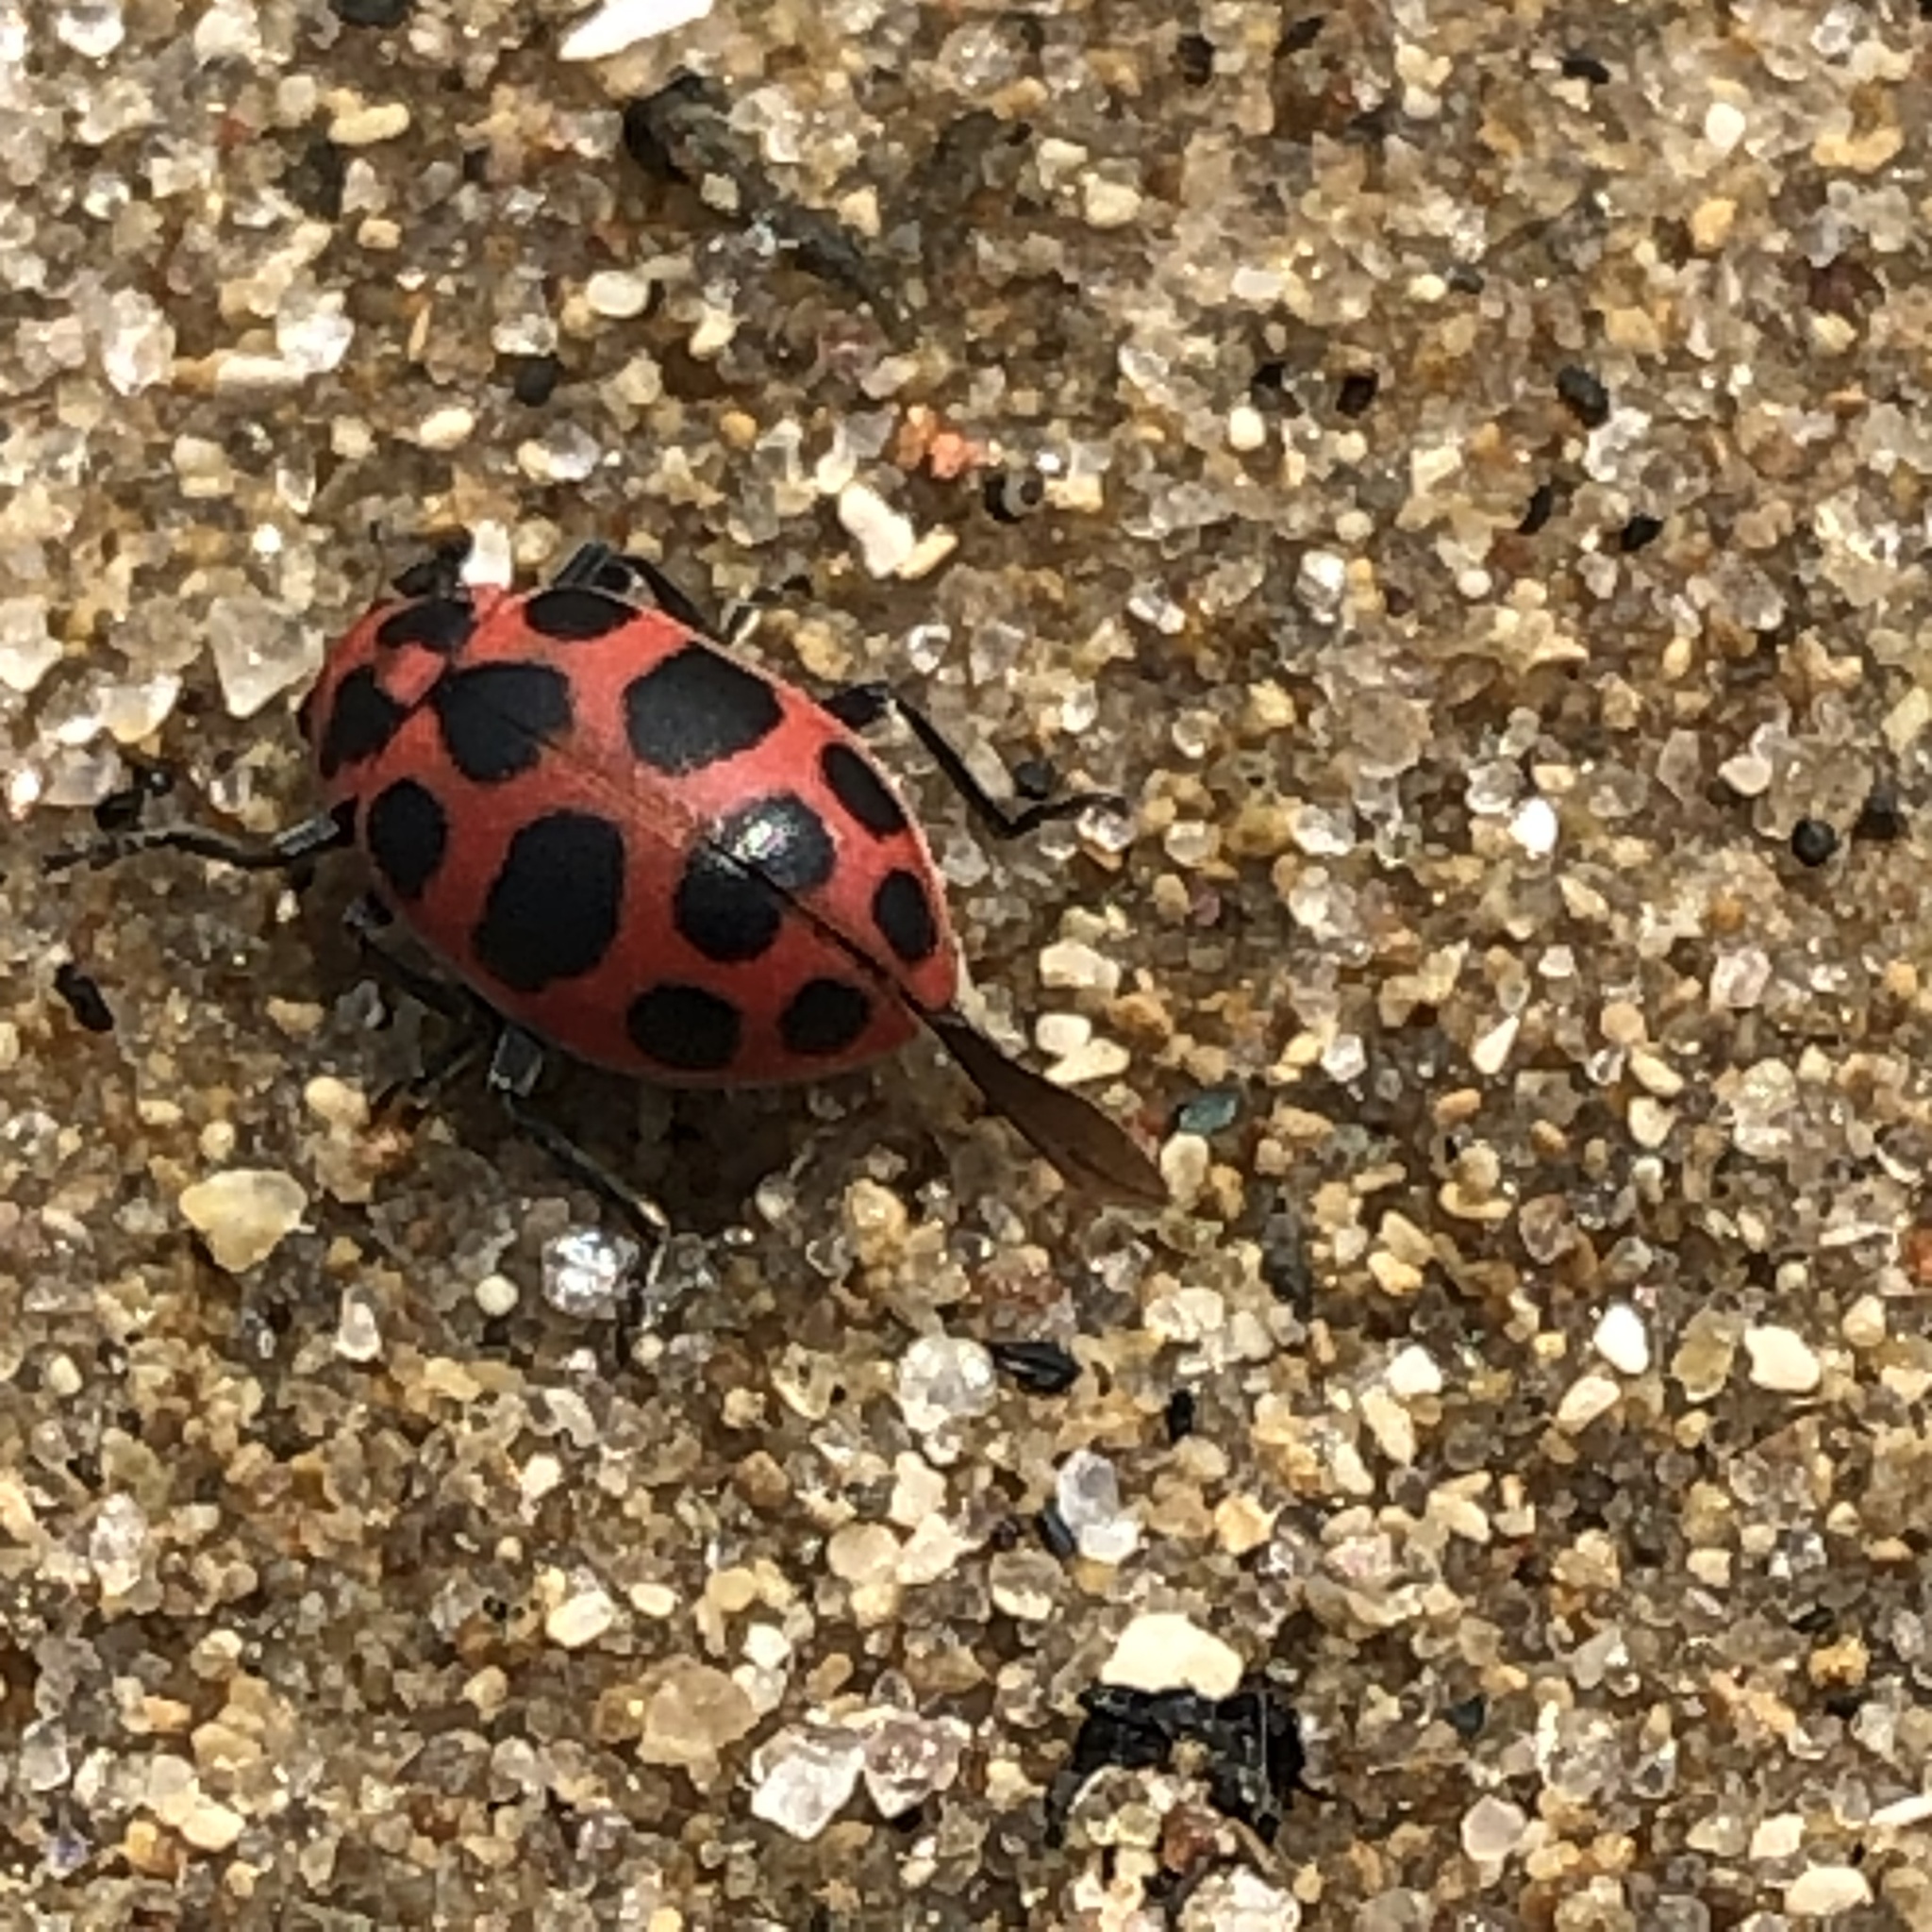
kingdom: Animalia
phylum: Arthropoda
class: Insecta
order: Coleoptera
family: Coccinellidae
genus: Coleomegilla
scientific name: Coleomegilla maculata
